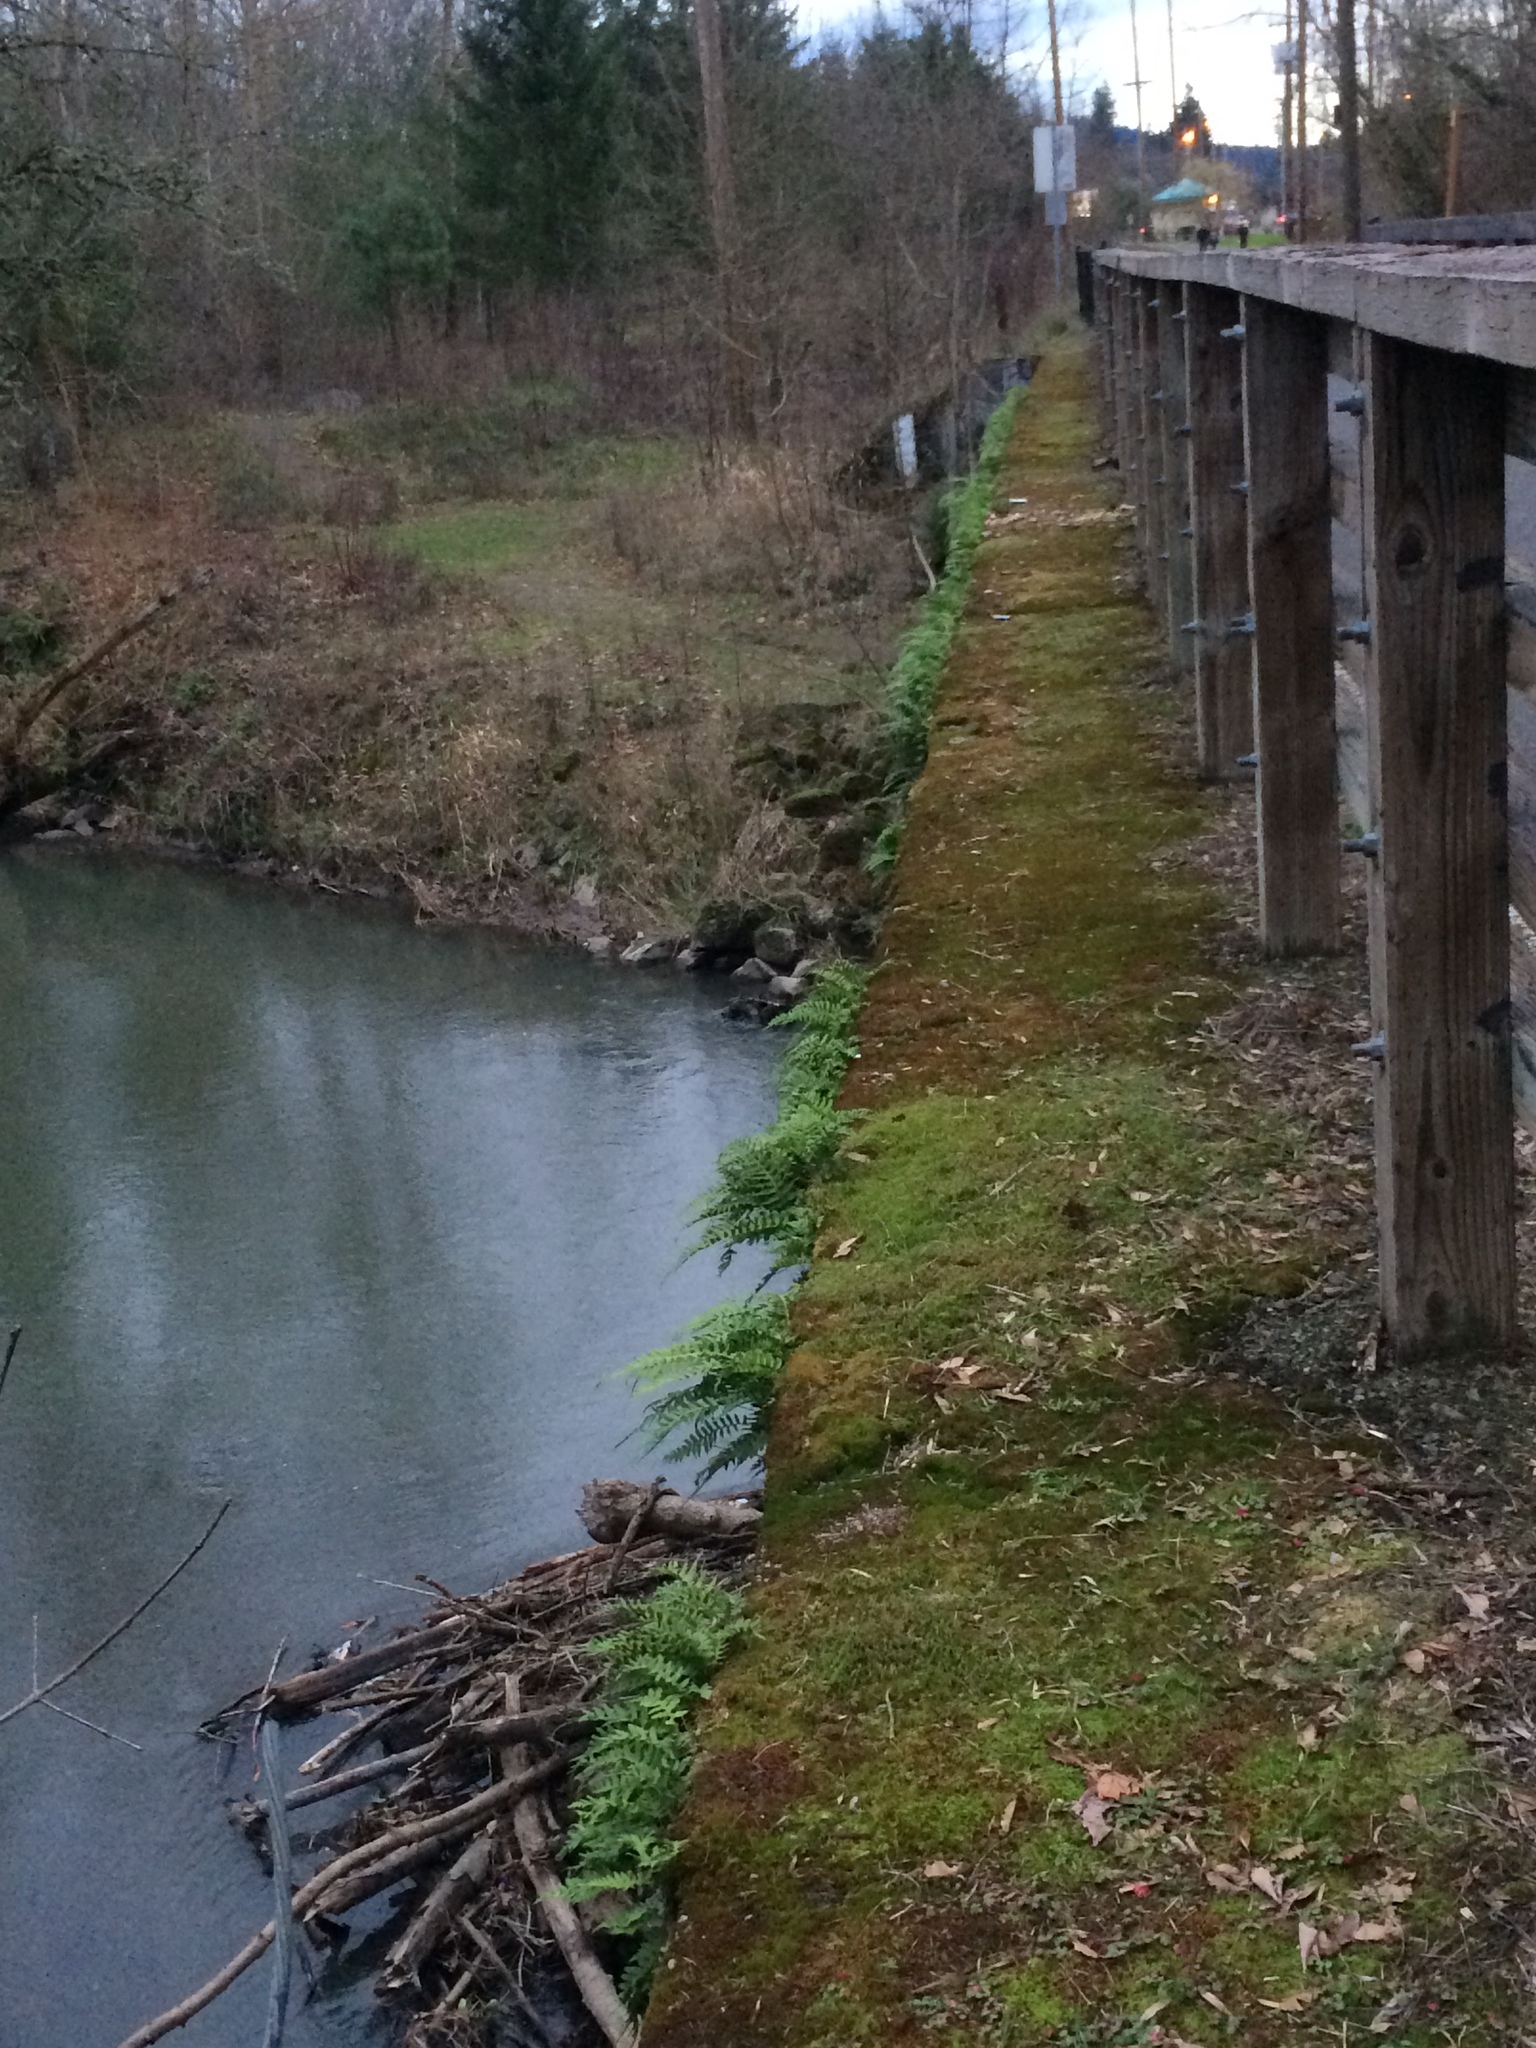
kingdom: Plantae
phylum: Tracheophyta
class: Polypodiopsida
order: Polypodiales
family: Polypodiaceae
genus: Polypodium
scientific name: Polypodium glycyrrhiza
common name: Licorice fern
